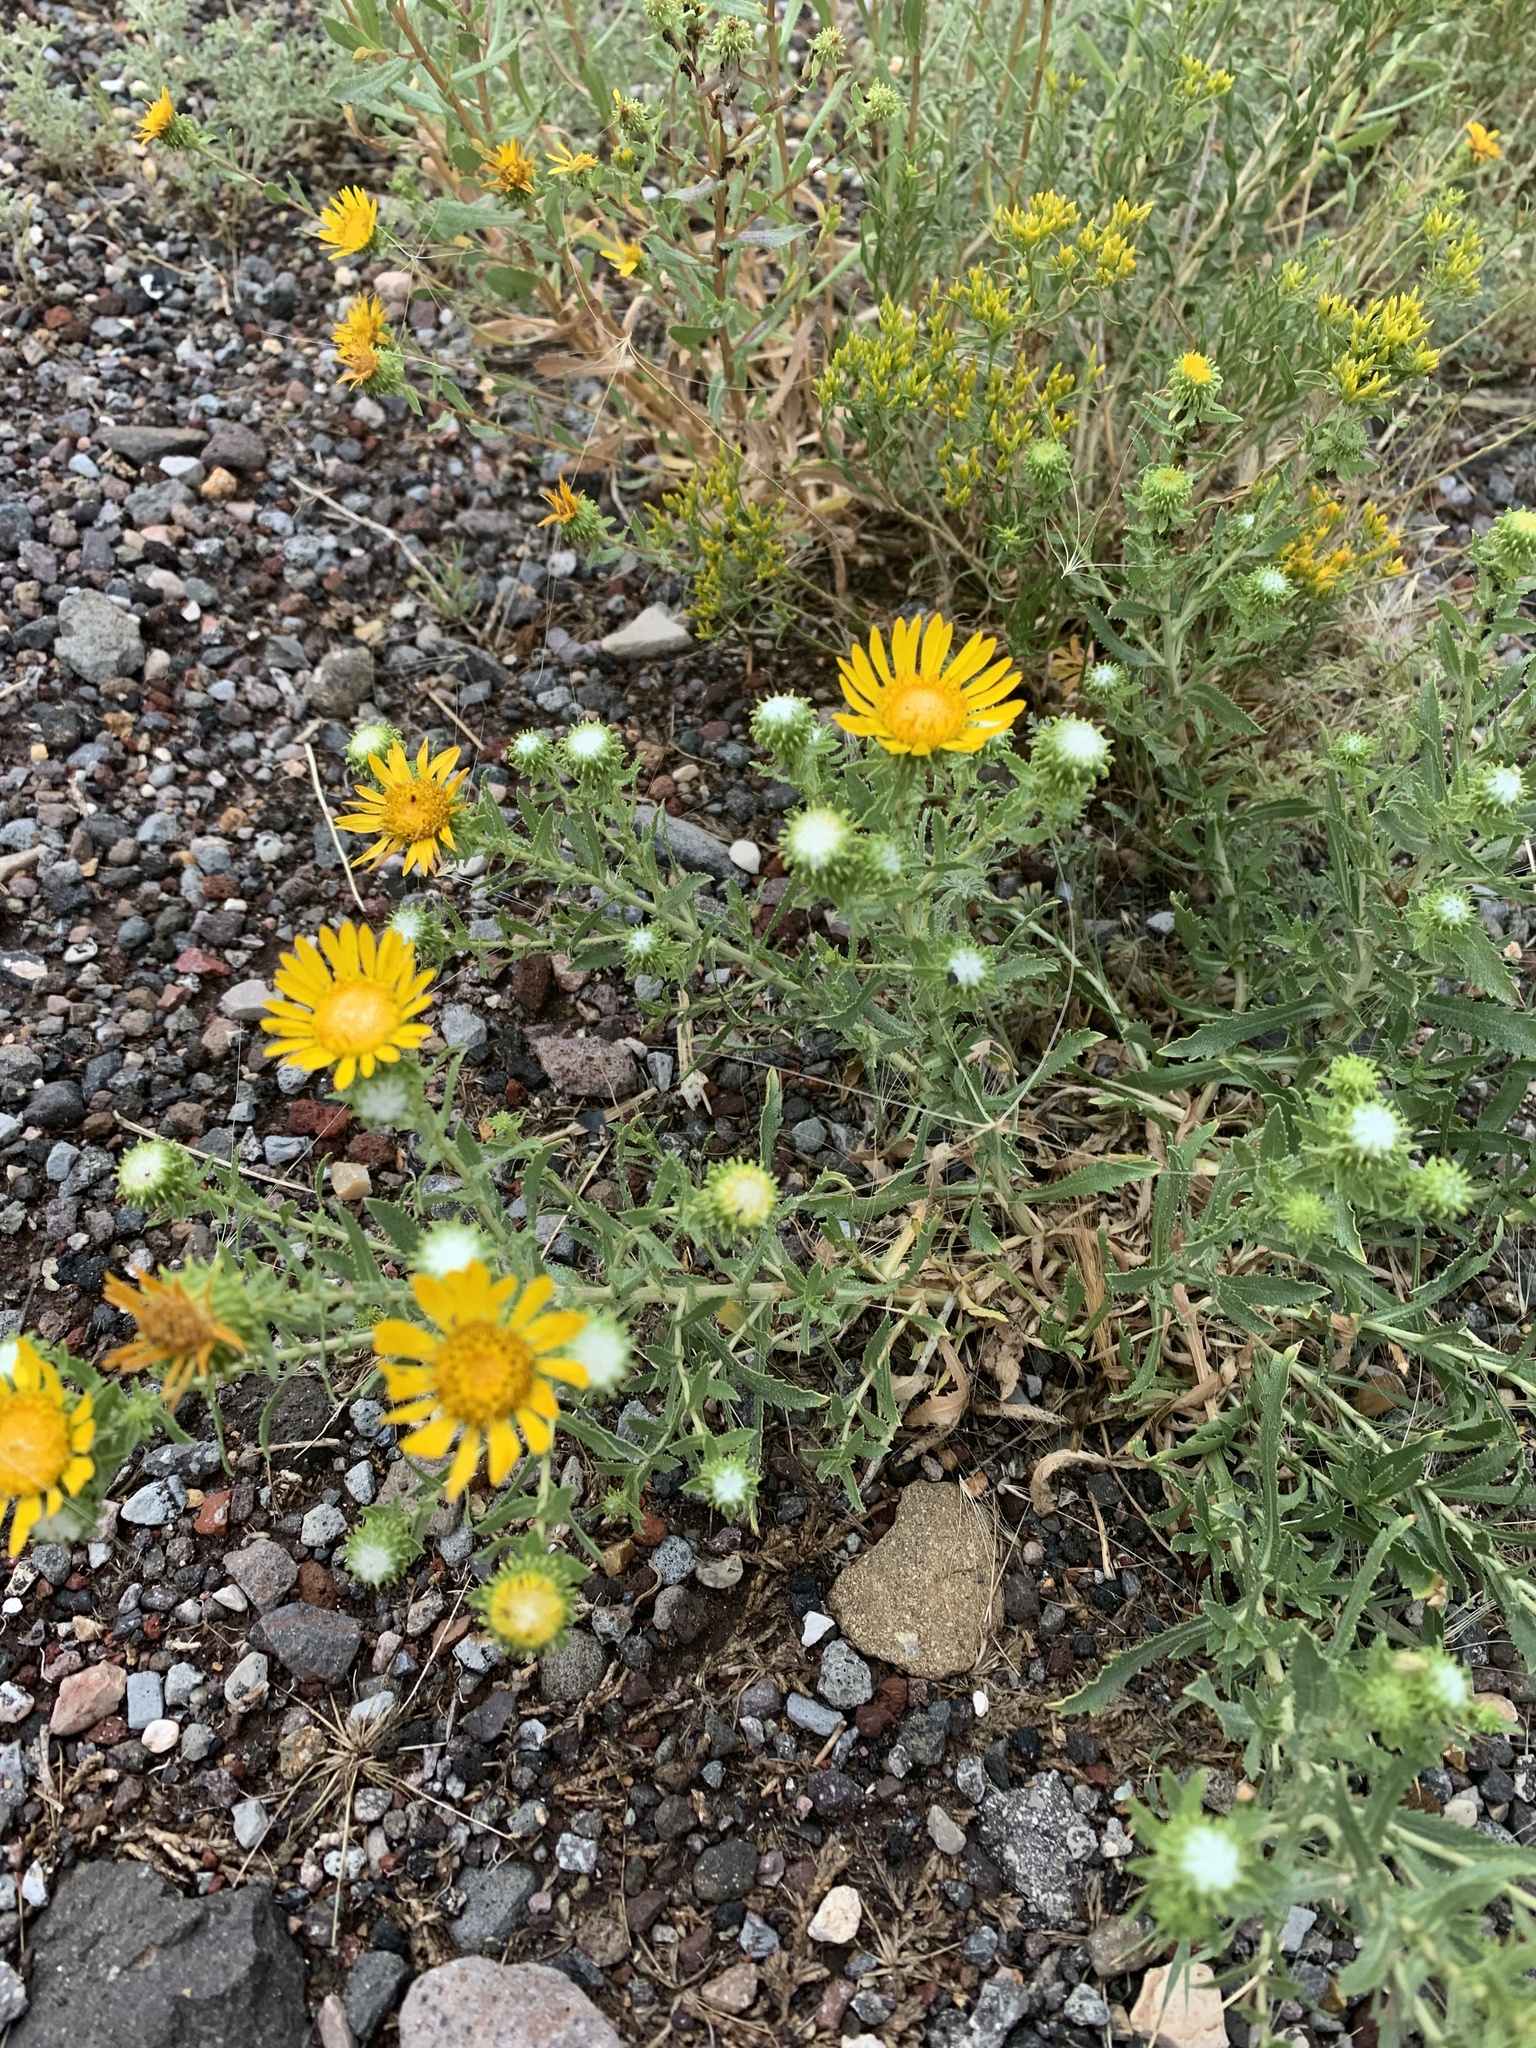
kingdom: Plantae
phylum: Tracheophyta
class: Magnoliopsida
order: Asterales
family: Asteraceae
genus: Grindelia
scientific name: Grindelia squarrosa
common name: Curly-cup gumweed
